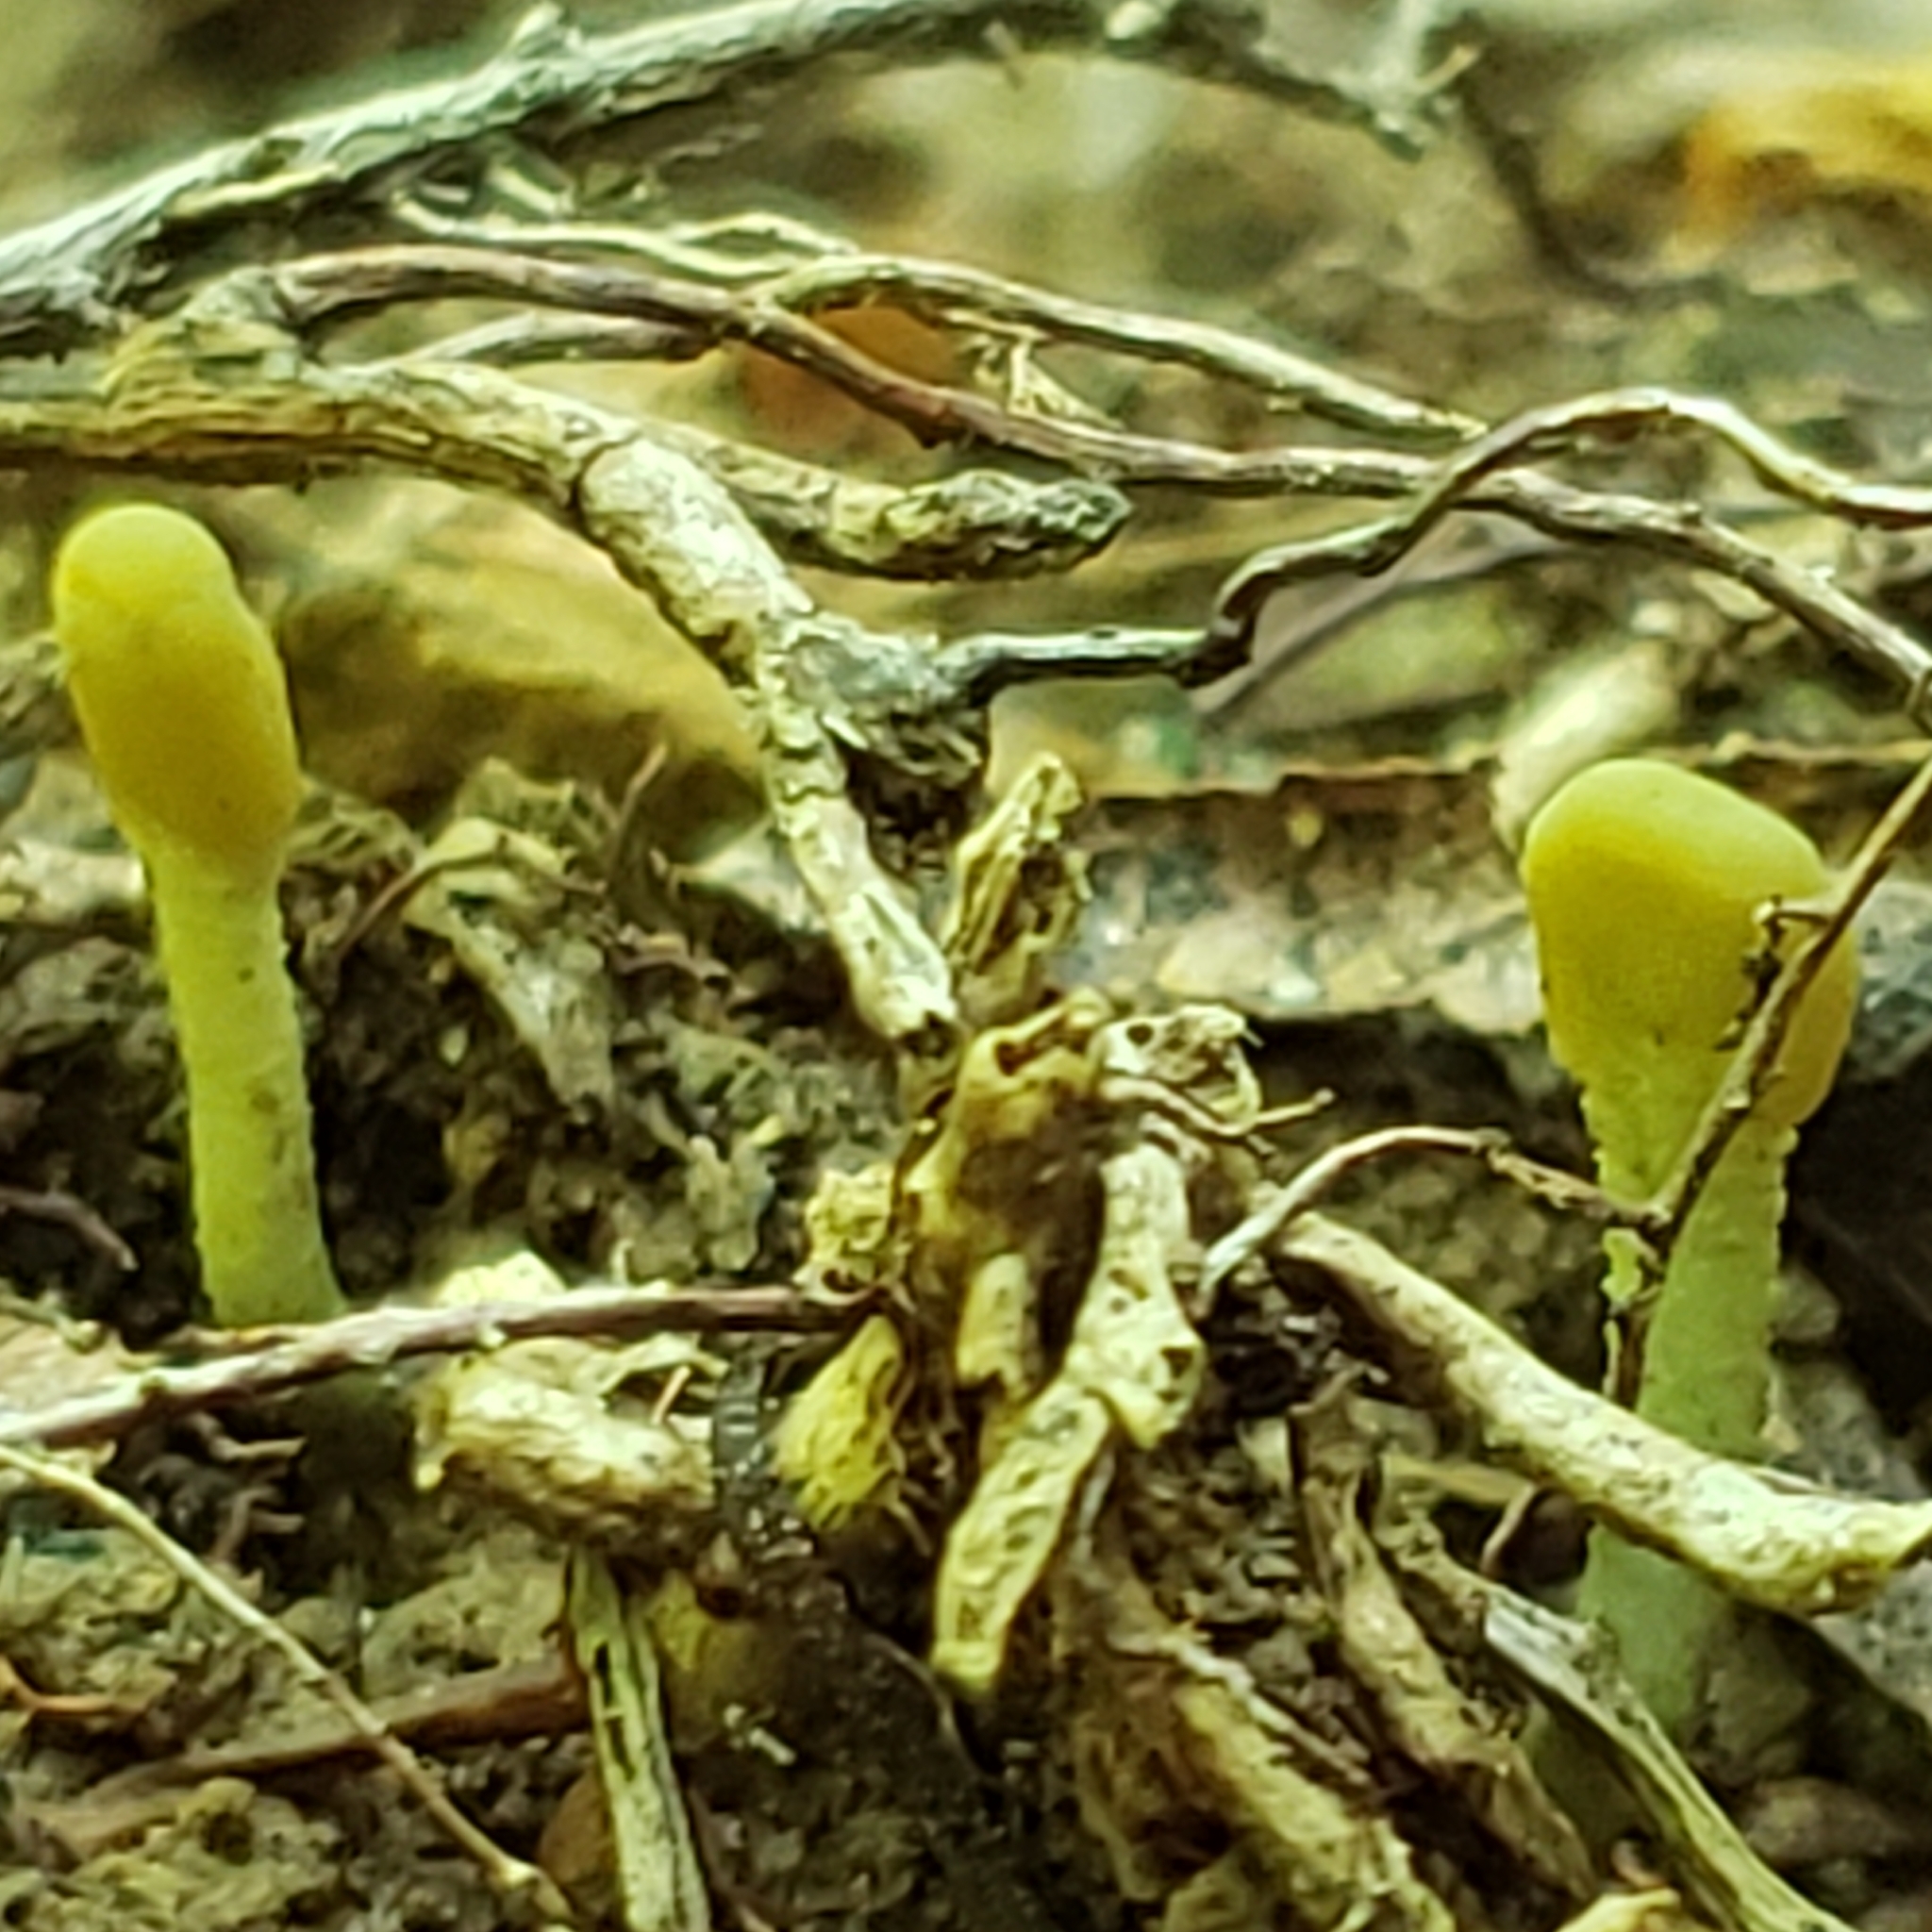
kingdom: Fungi
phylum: Ascomycota
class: Leotiomycetes
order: Leotiales
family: Leotiaceae
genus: Microglossum
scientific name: Microglossum rufum
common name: Orange earthtongue
